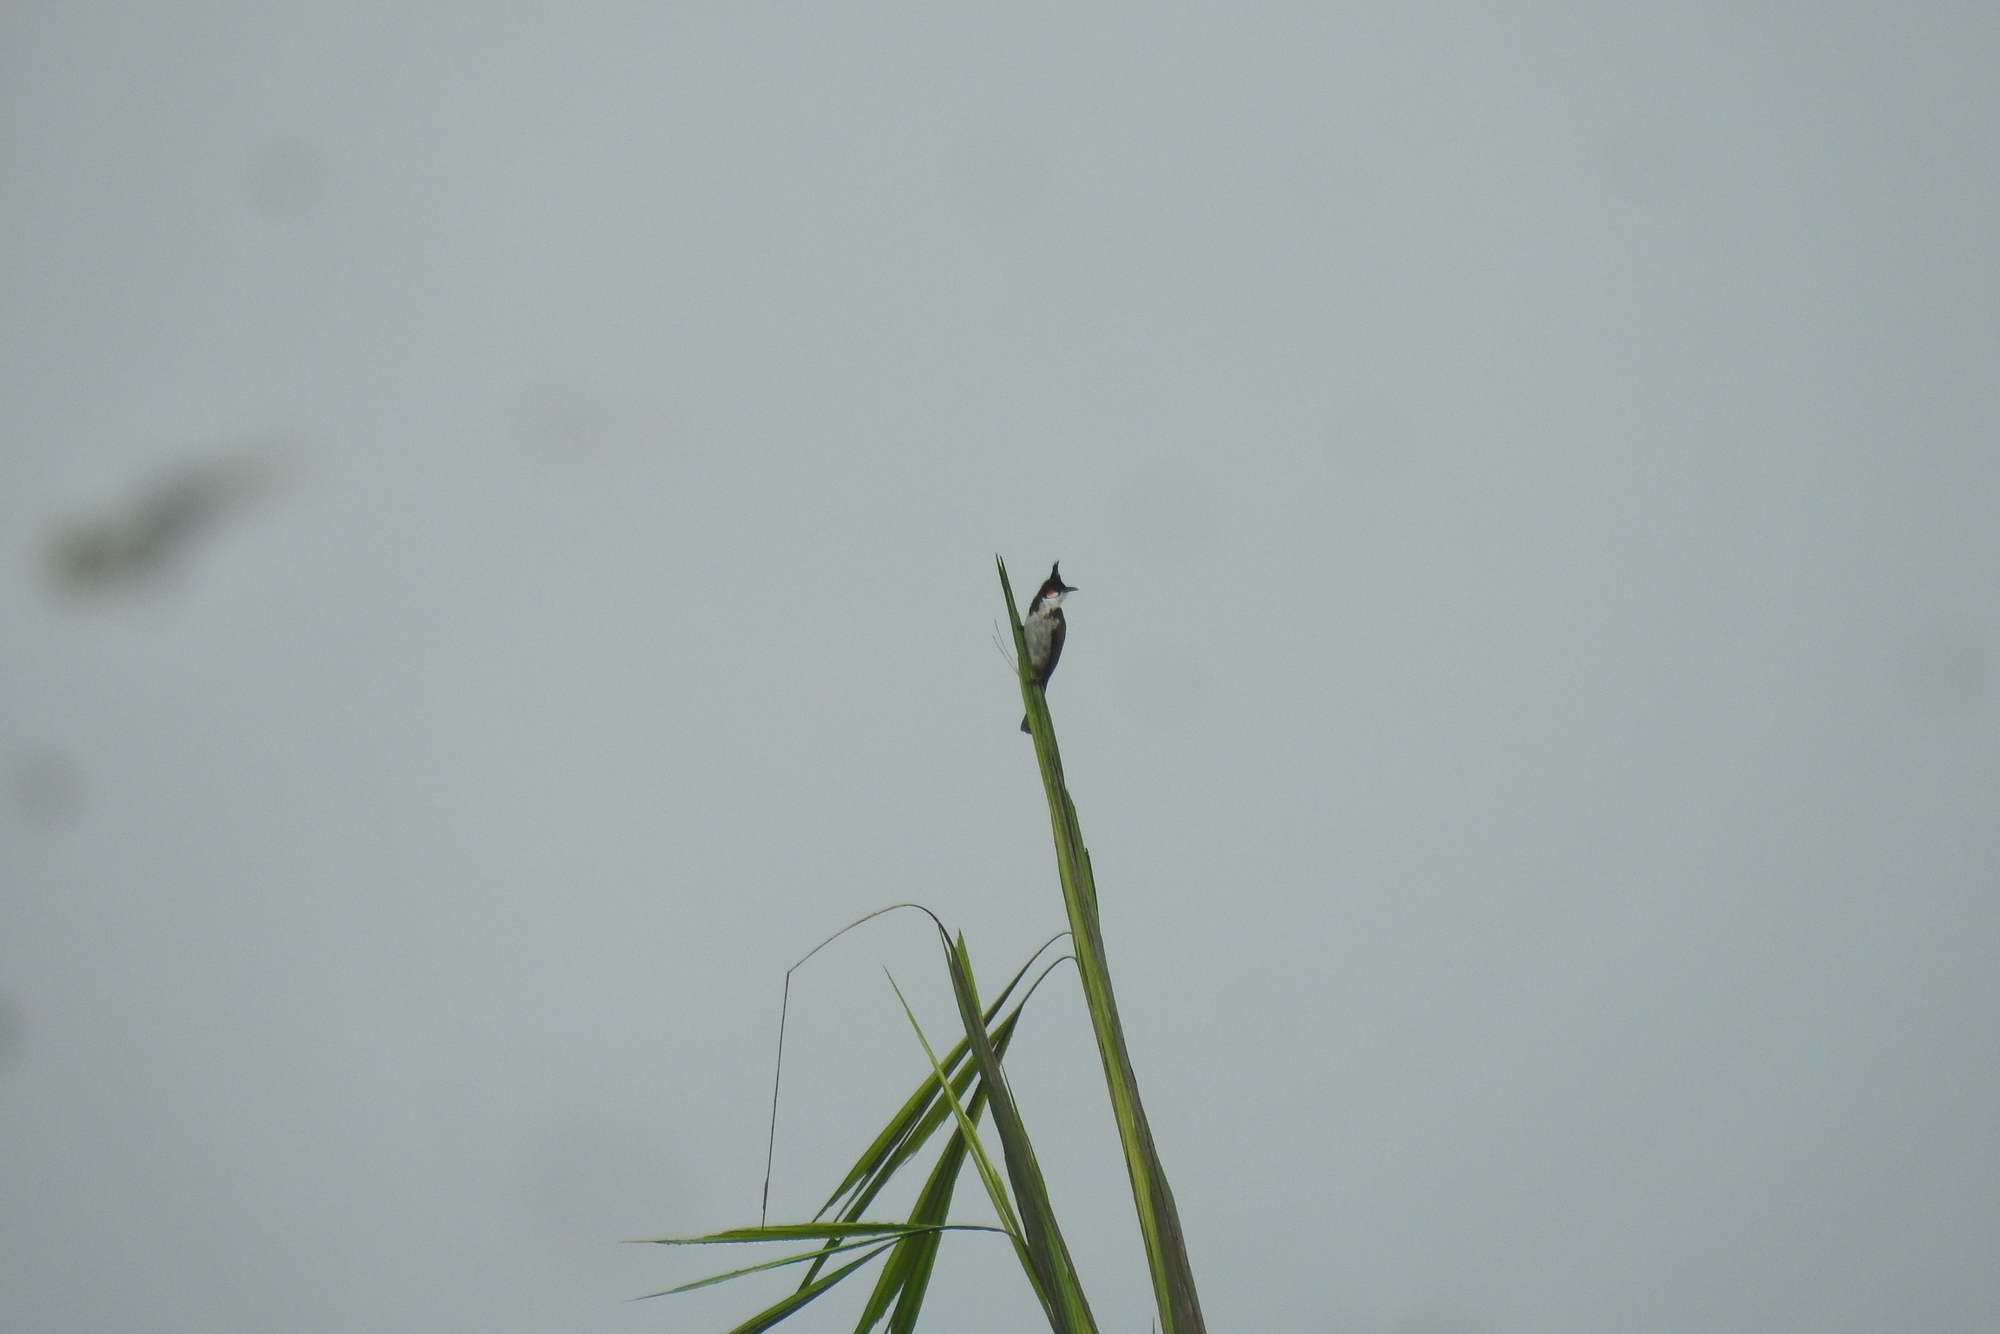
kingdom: Animalia
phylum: Chordata
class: Aves
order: Passeriformes
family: Pycnonotidae
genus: Pycnonotus
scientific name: Pycnonotus jocosus
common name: Red-whiskered bulbul
